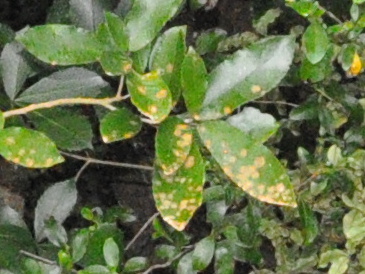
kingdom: Plantae
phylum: Chlorophyta
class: Ulvophyceae
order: Trentepohliales
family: Trentepohliaceae
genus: Cephaleuros
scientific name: Cephaleuros
